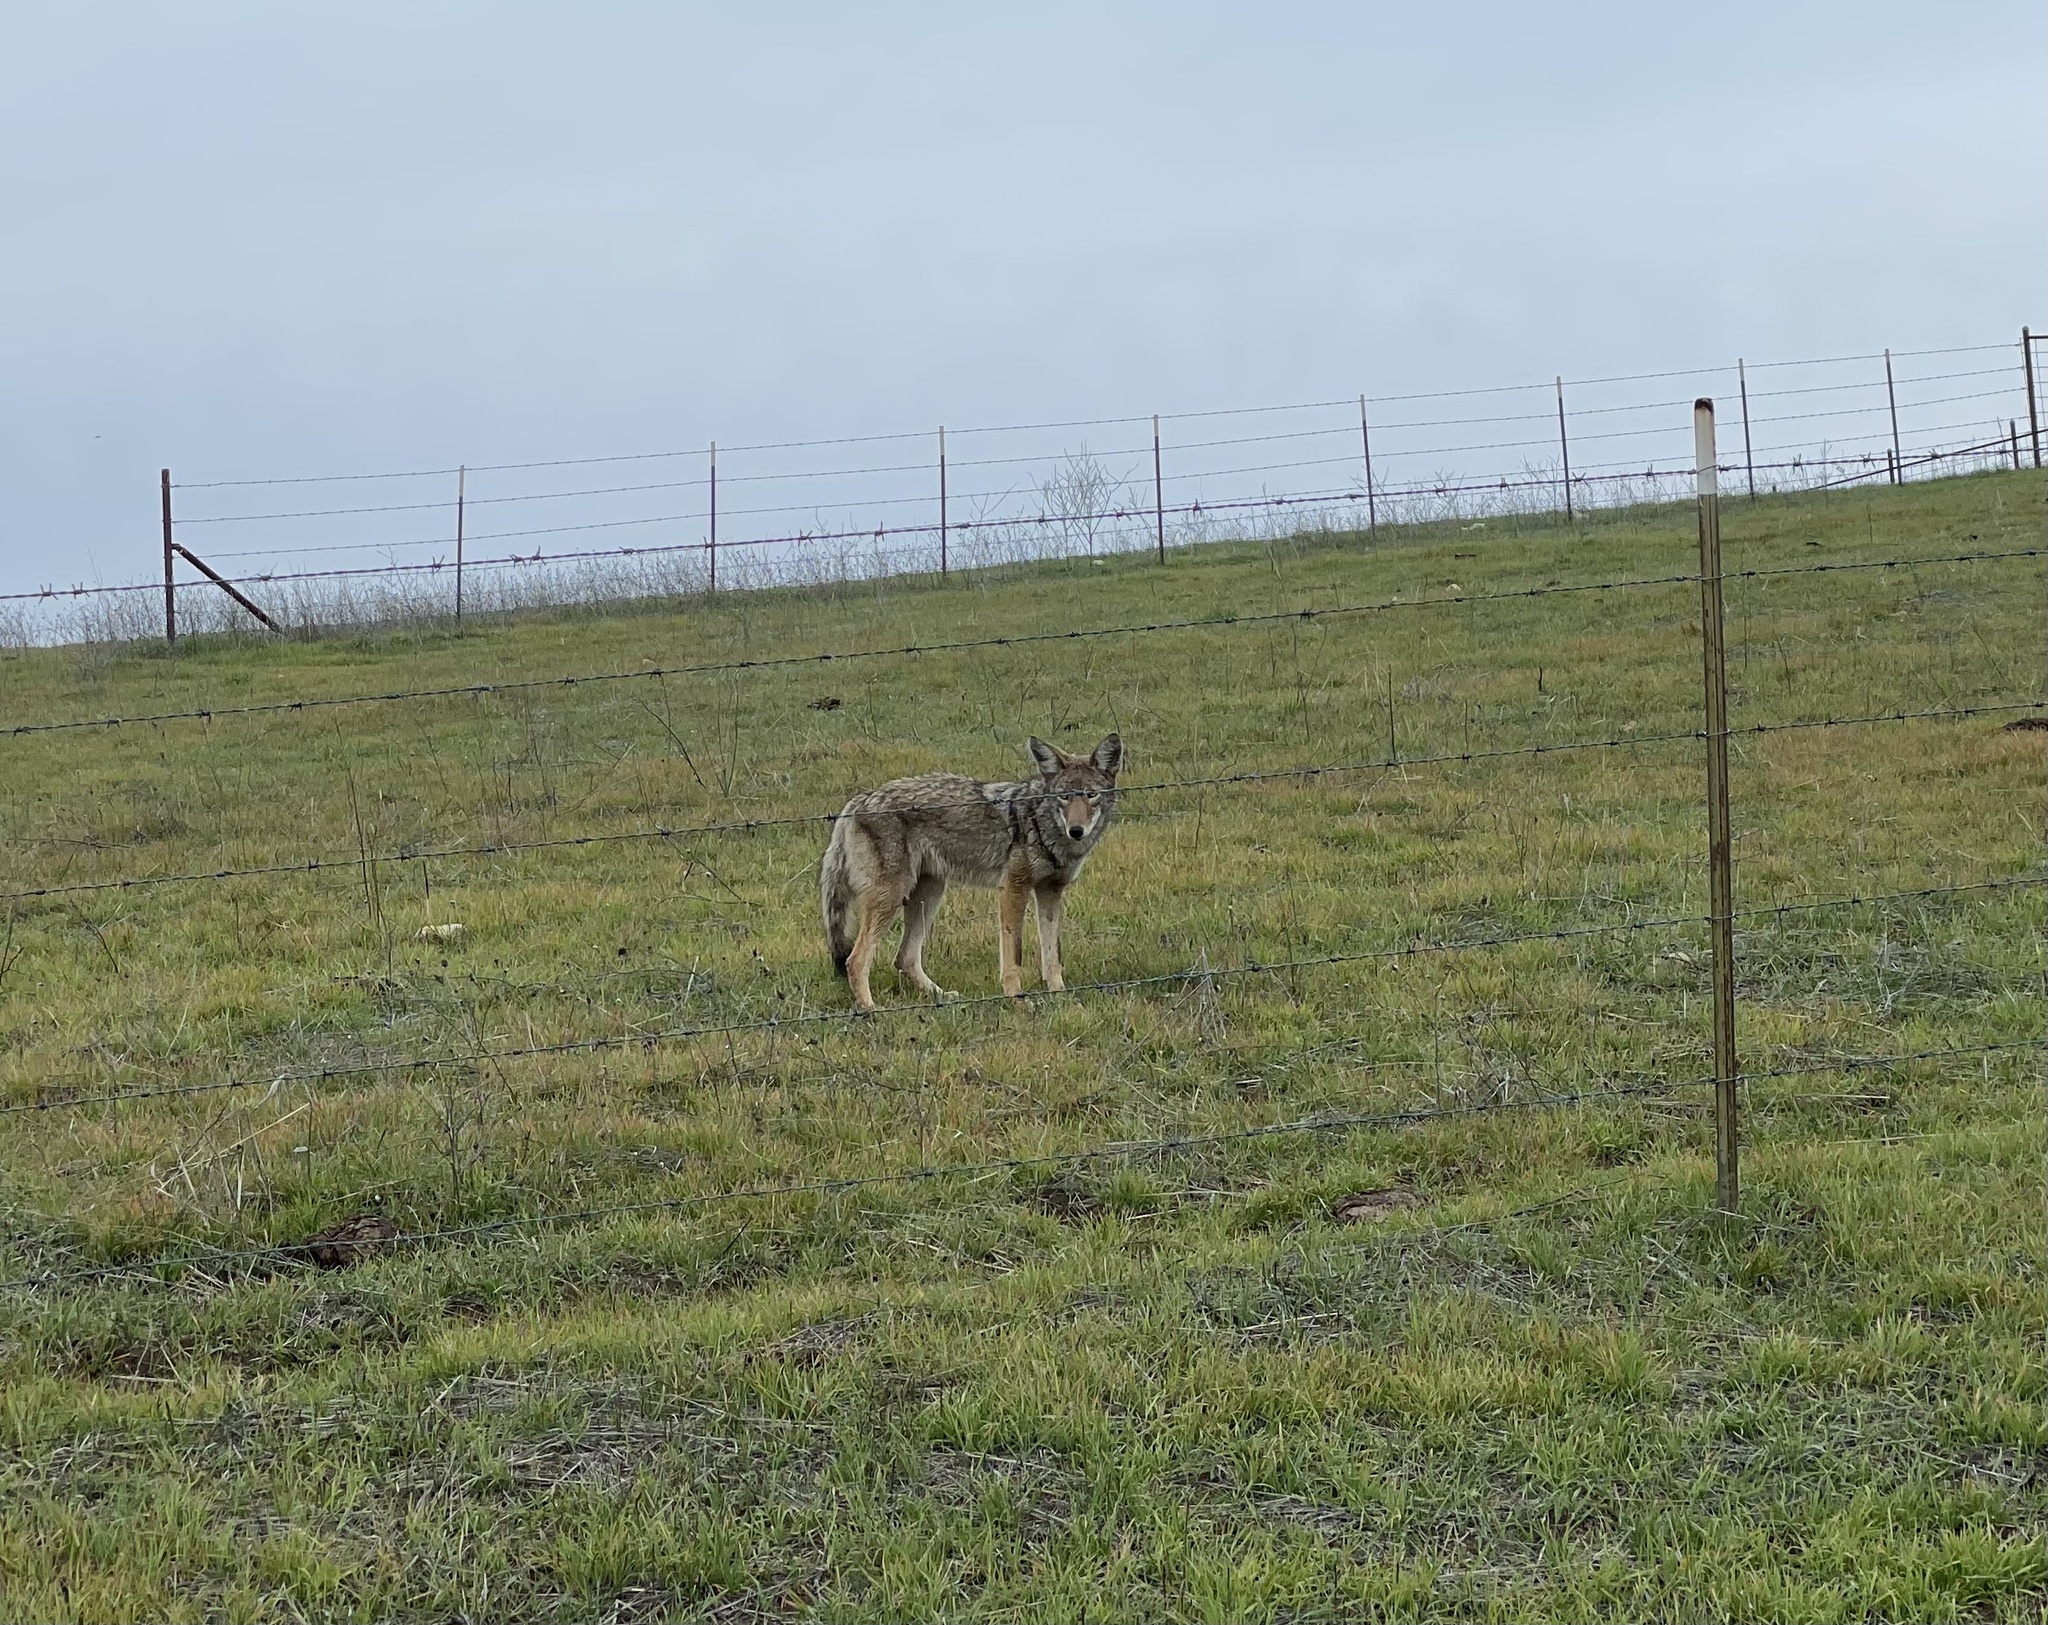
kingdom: Animalia
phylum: Chordata
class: Mammalia
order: Carnivora
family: Canidae
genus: Canis
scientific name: Canis latrans
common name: Coyote
